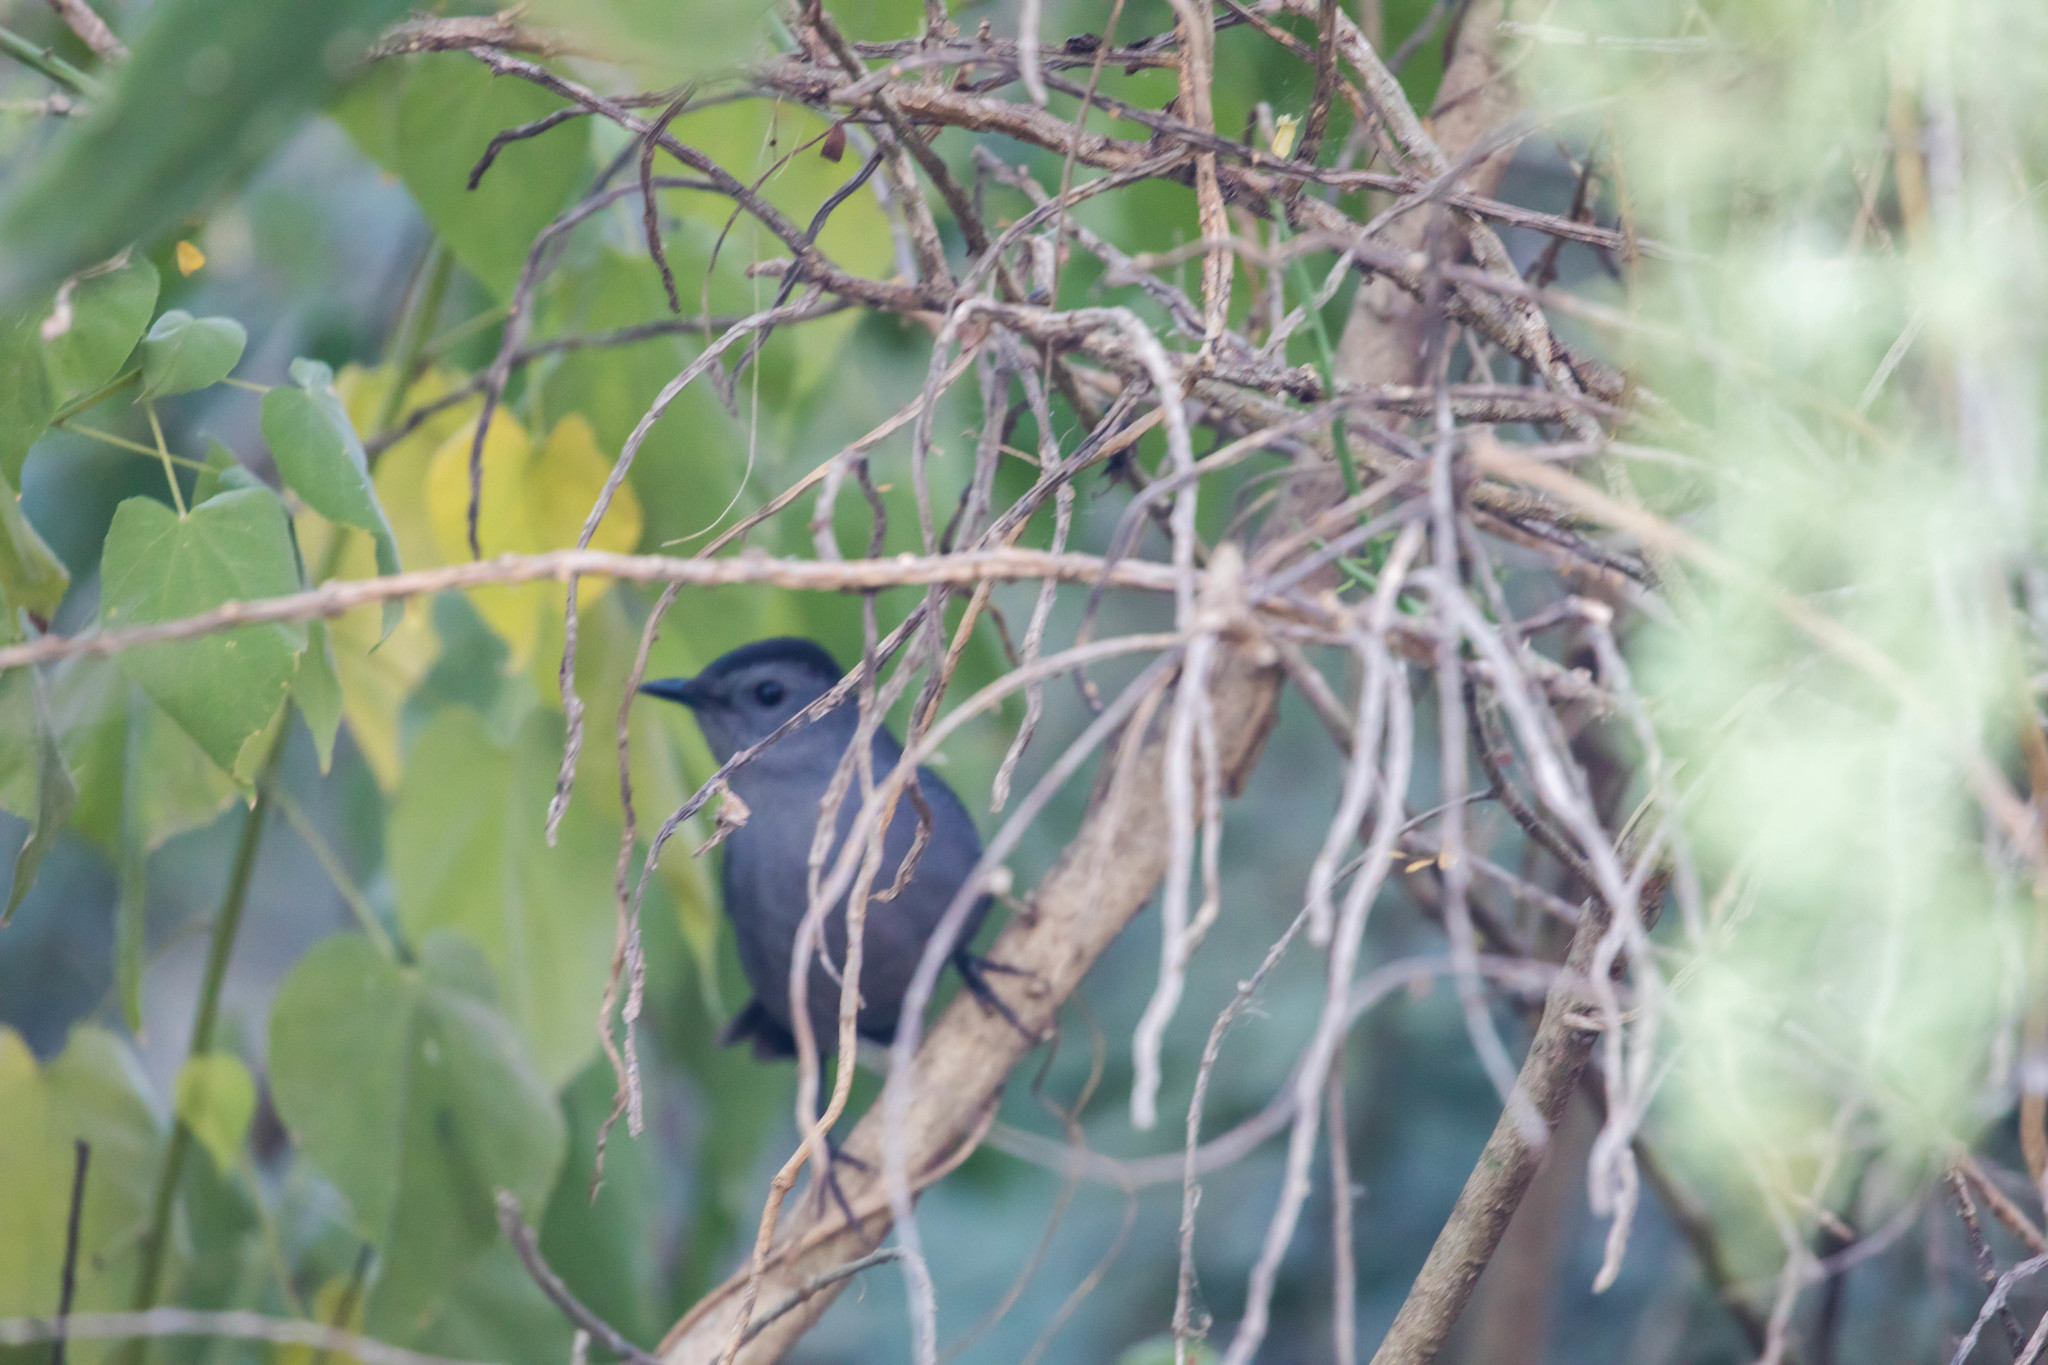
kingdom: Animalia
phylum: Chordata
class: Aves
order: Passeriformes
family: Mimidae
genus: Dumetella
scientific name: Dumetella carolinensis
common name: Gray catbird
